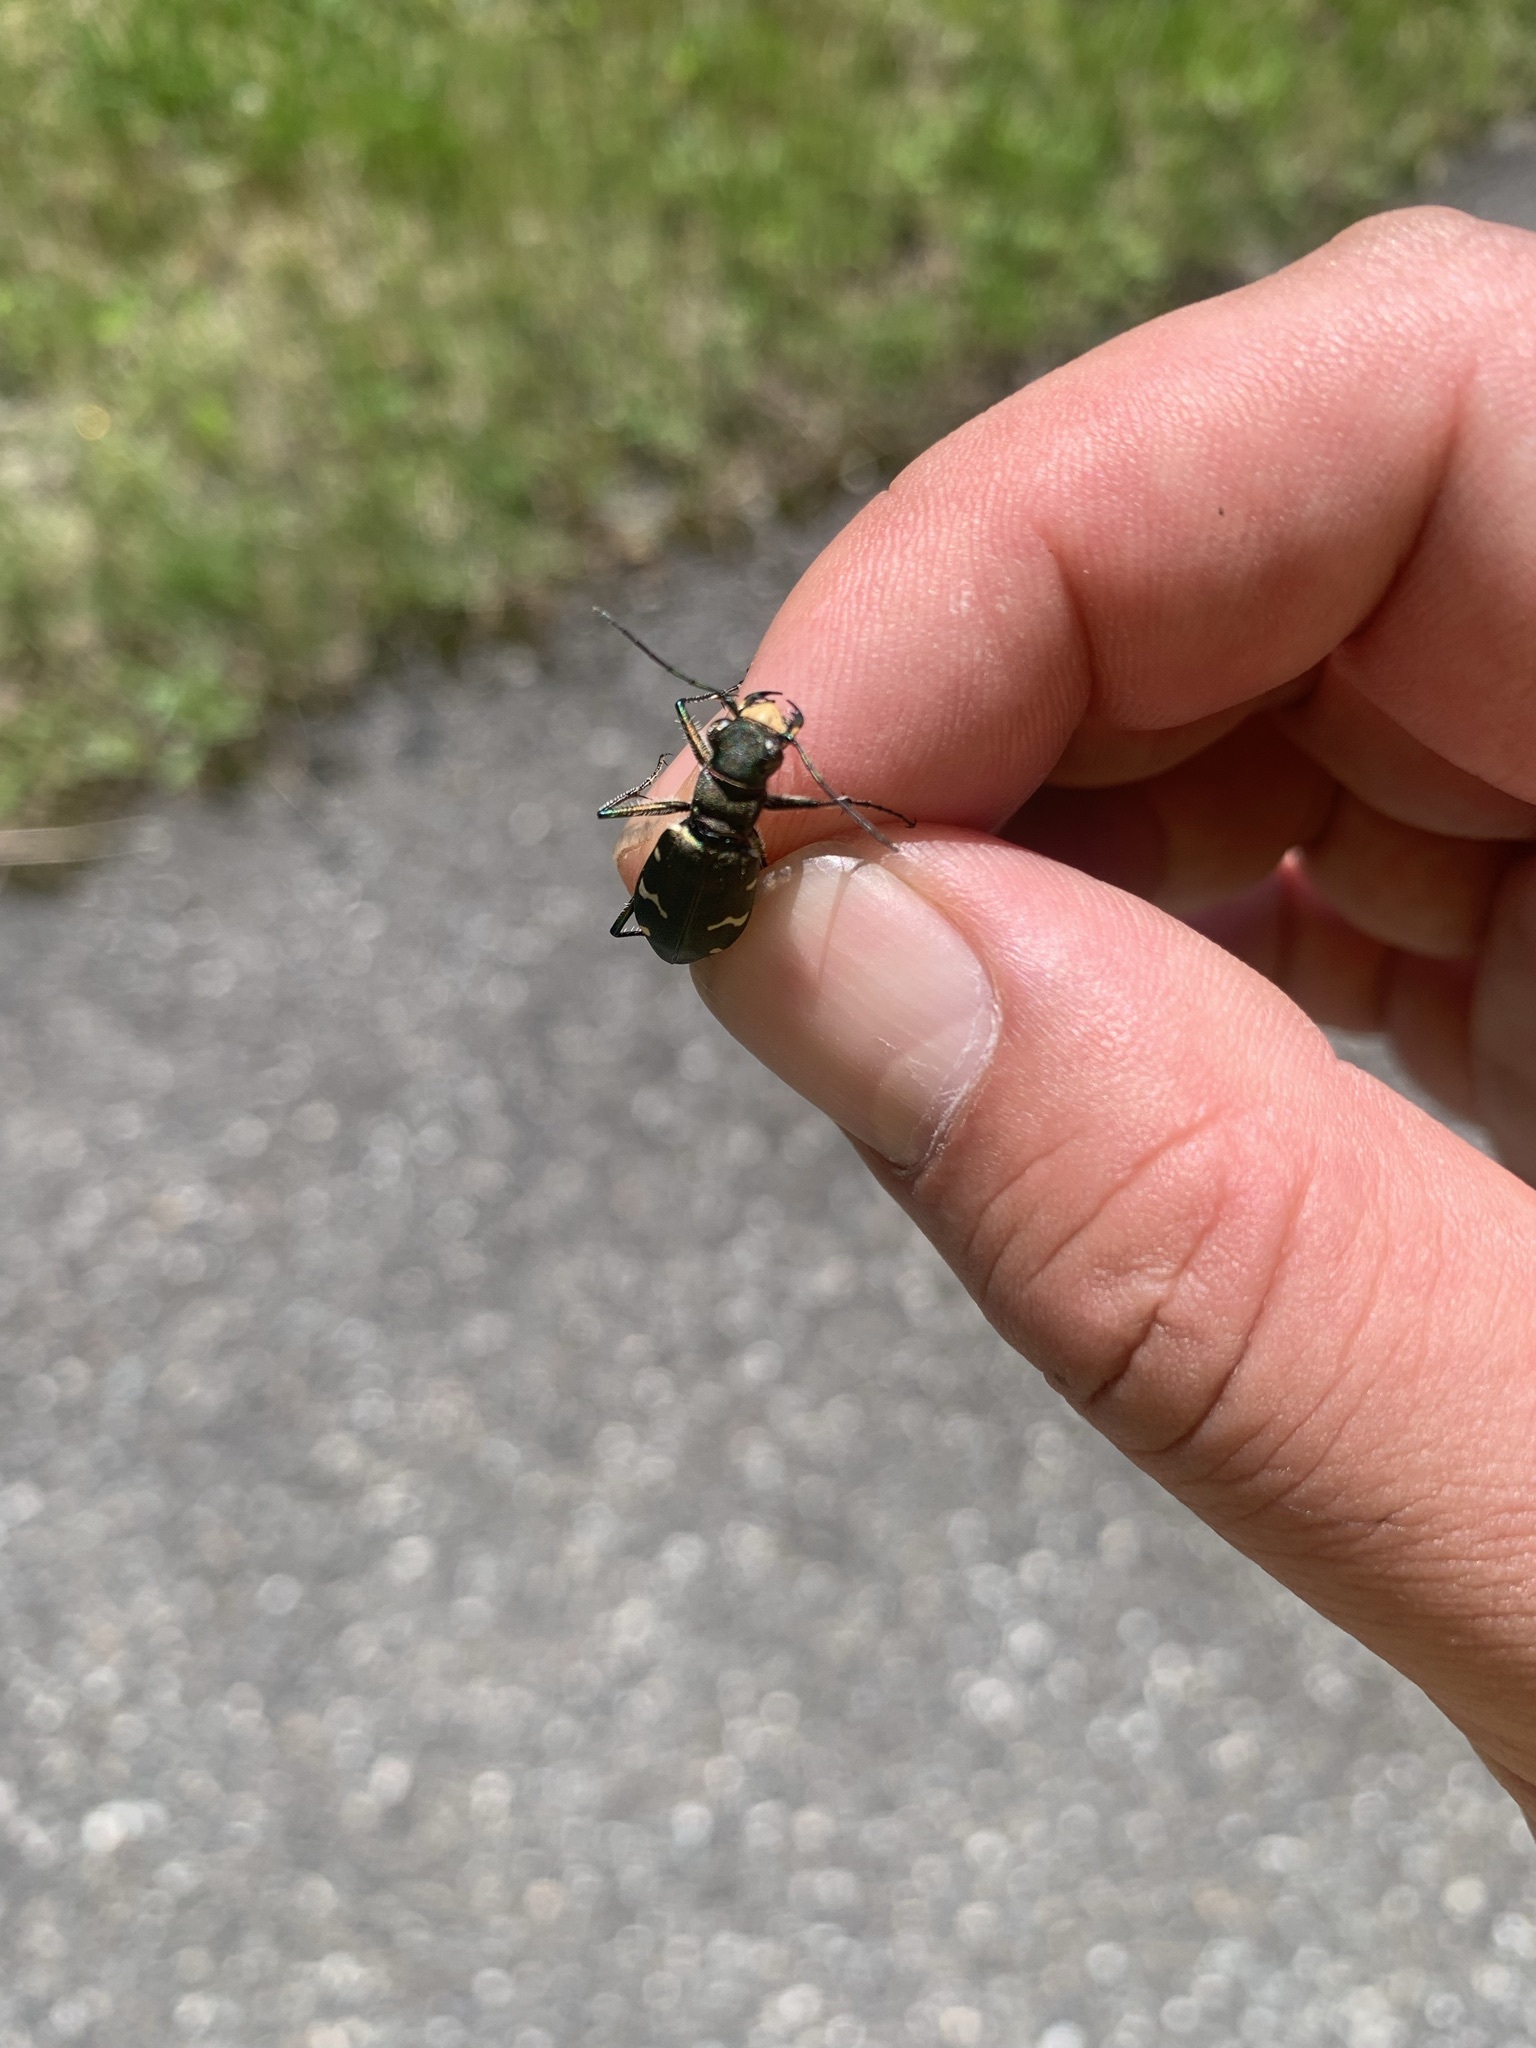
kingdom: Animalia
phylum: Arthropoda
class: Insecta
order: Coleoptera
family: Carabidae
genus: Cicindela
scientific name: Cicindela sachalinensis
